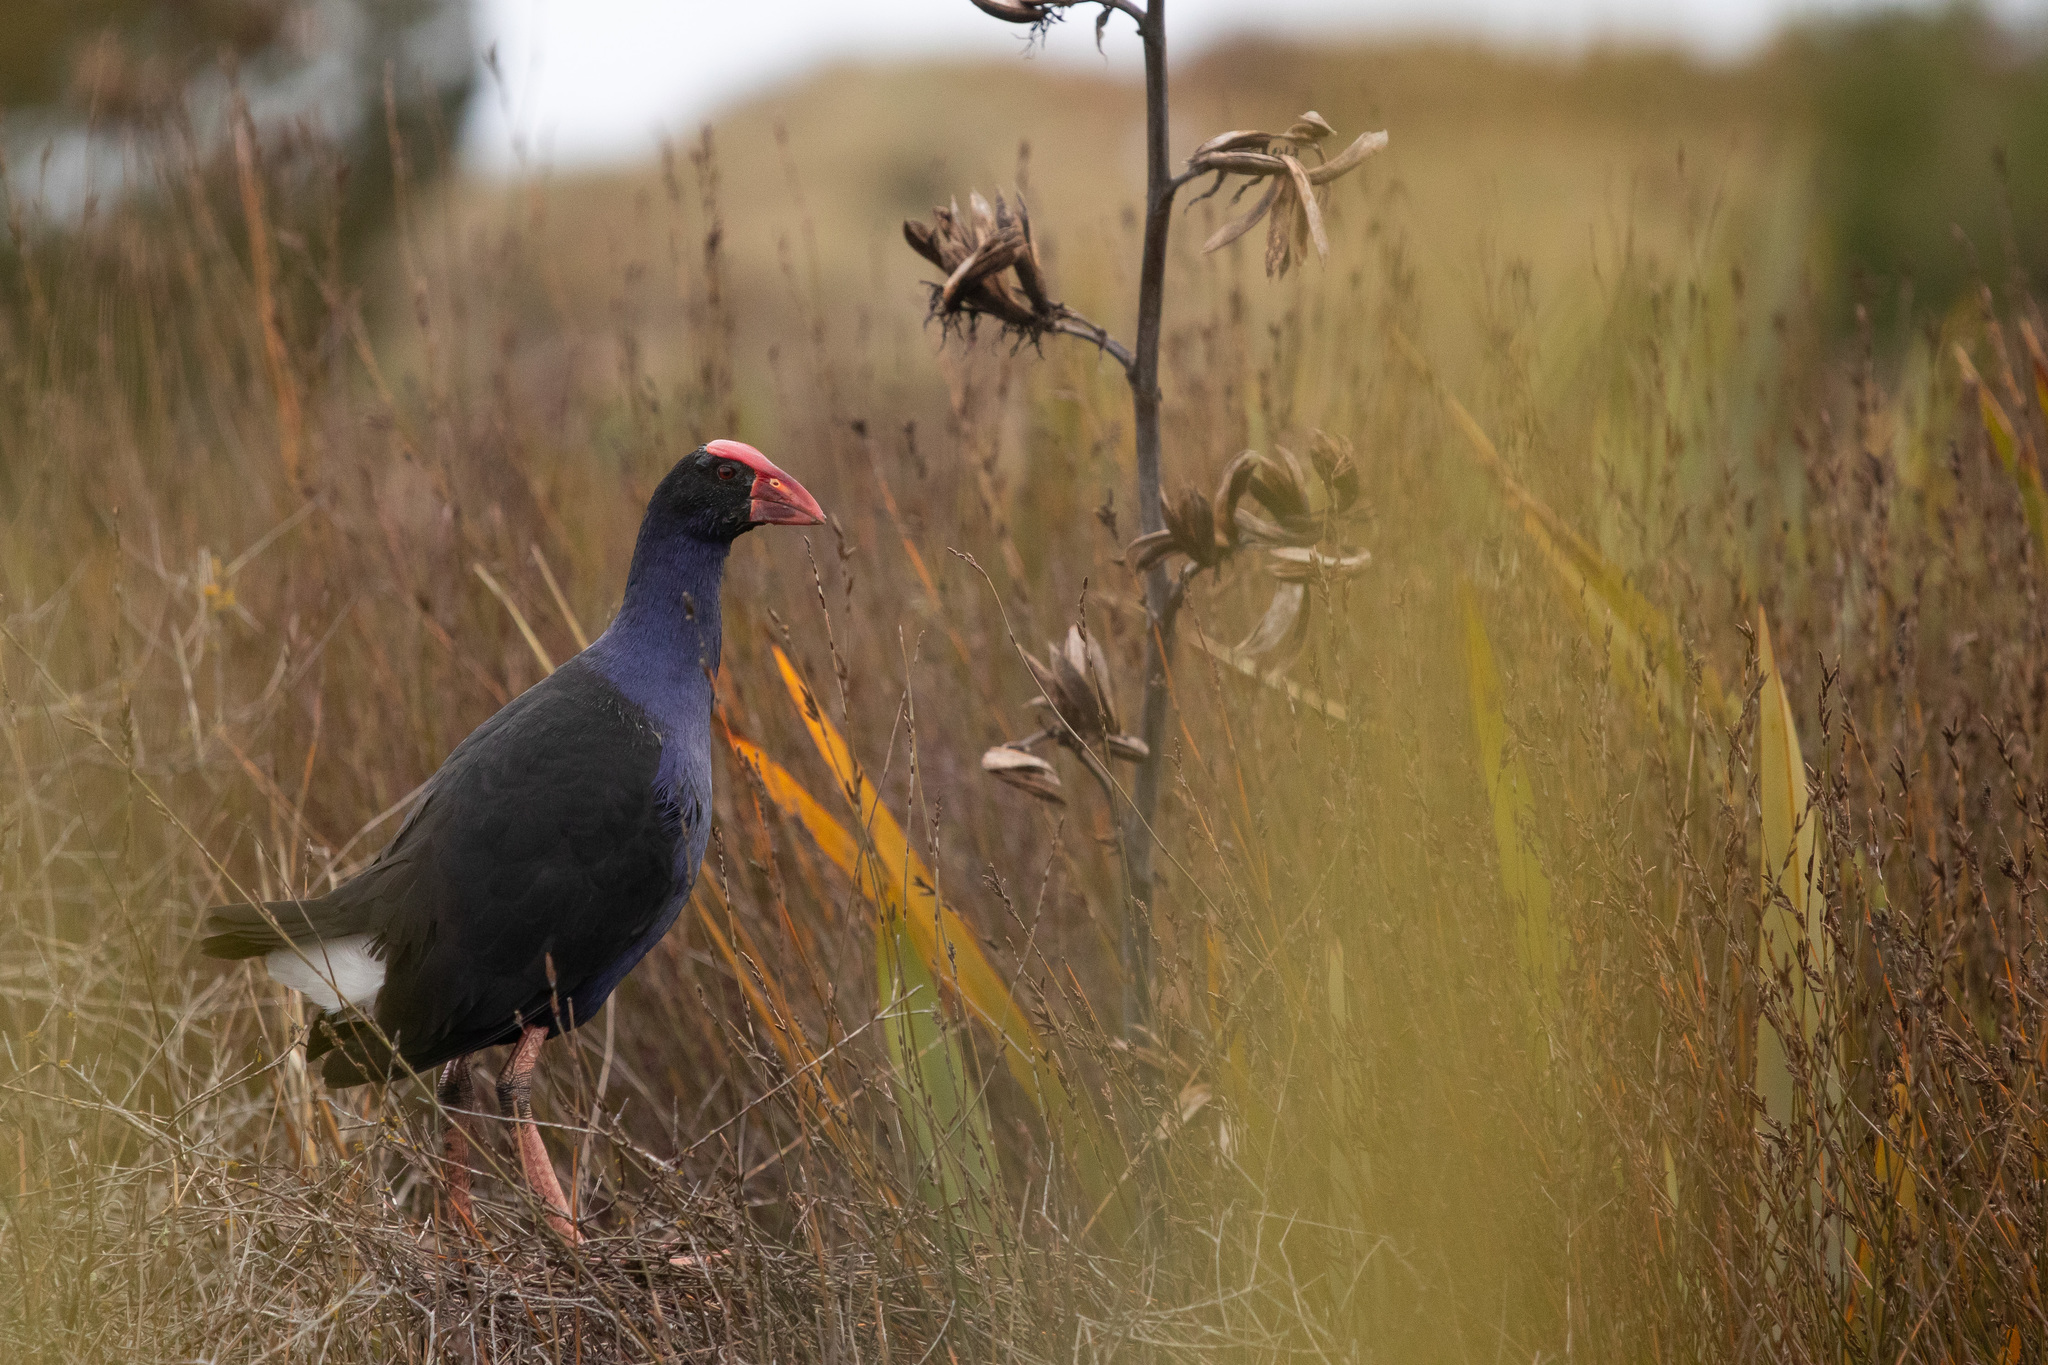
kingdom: Animalia
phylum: Chordata
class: Aves
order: Gruiformes
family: Rallidae
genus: Porphyrio
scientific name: Porphyrio melanotus
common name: Australasian swamphen
